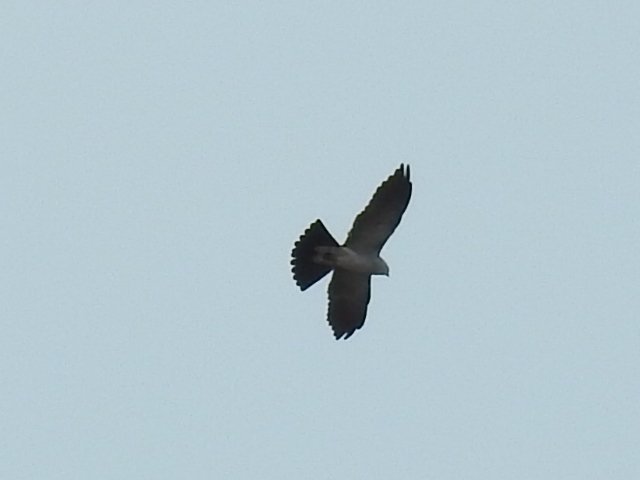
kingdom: Animalia
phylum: Chordata
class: Aves
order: Accipitriformes
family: Accipitridae
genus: Ictinia
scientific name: Ictinia mississippiensis
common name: Mississippi kite
